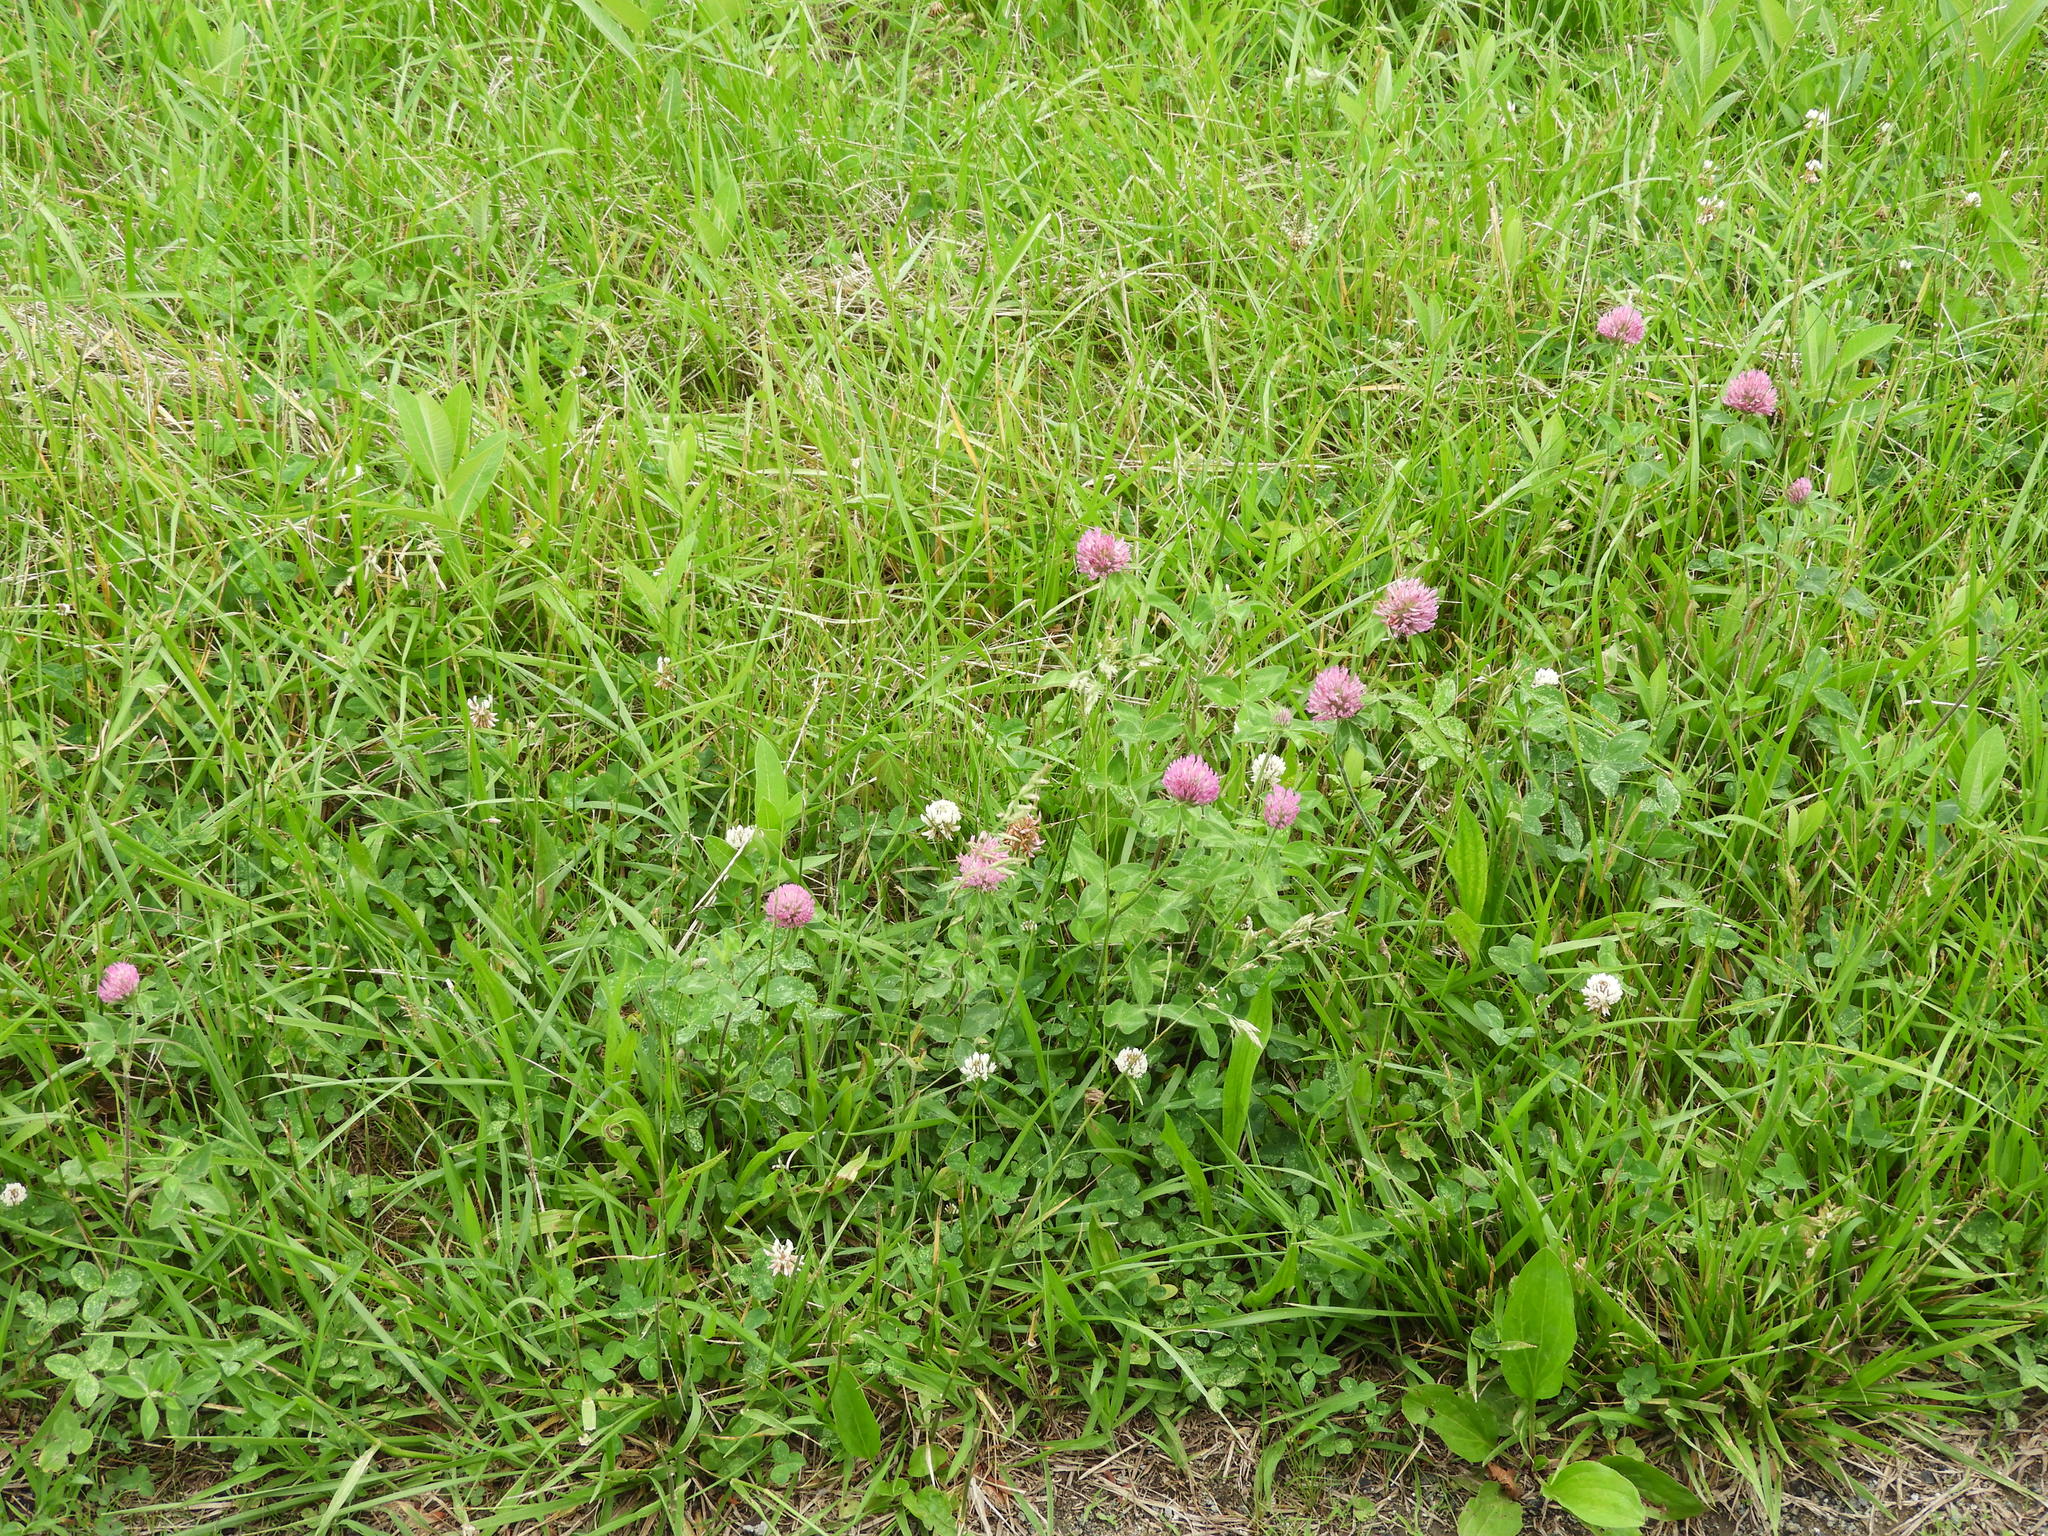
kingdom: Plantae
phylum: Tracheophyta
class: Magnoliopsida
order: Fabales
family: Fabaceae
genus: Trifolium
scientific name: Trifolium pratense
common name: Red clover
